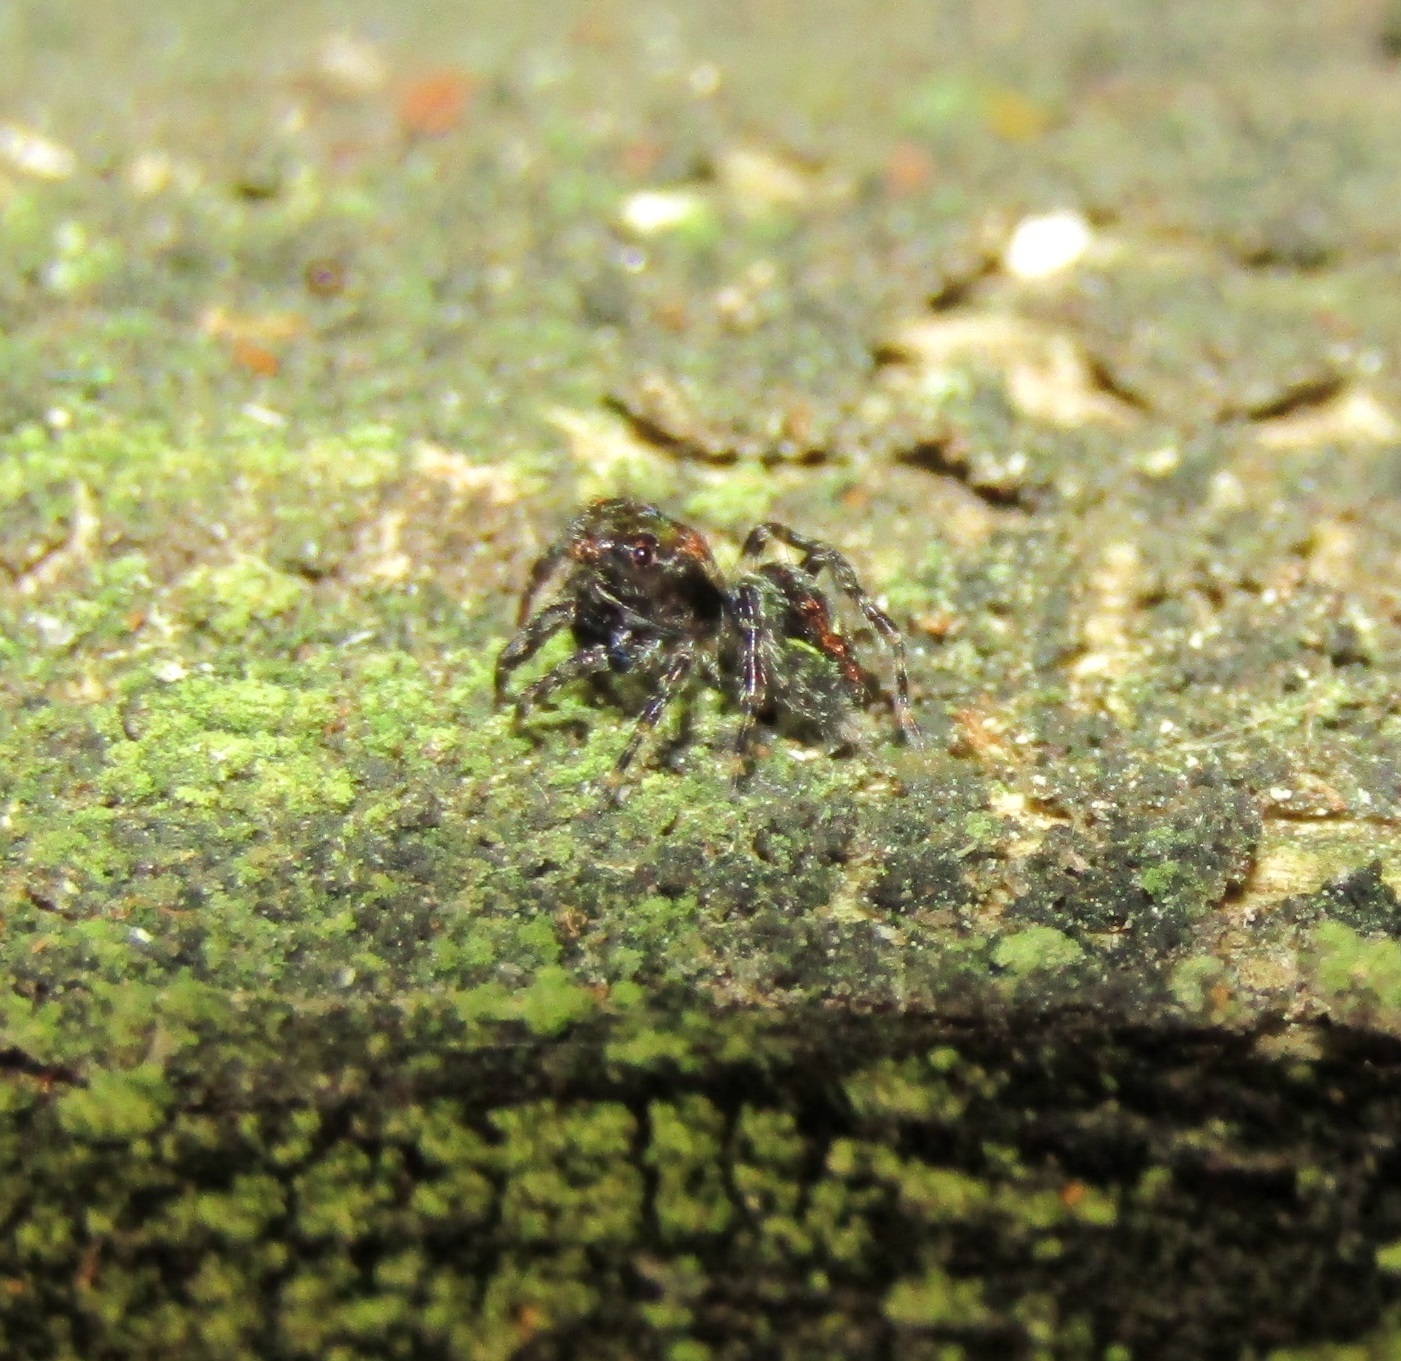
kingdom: Animalia
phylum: Arthropoda
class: Arachnida
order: Araneae
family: Salticidae
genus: Hinewaia
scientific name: Hinewaia embolica
